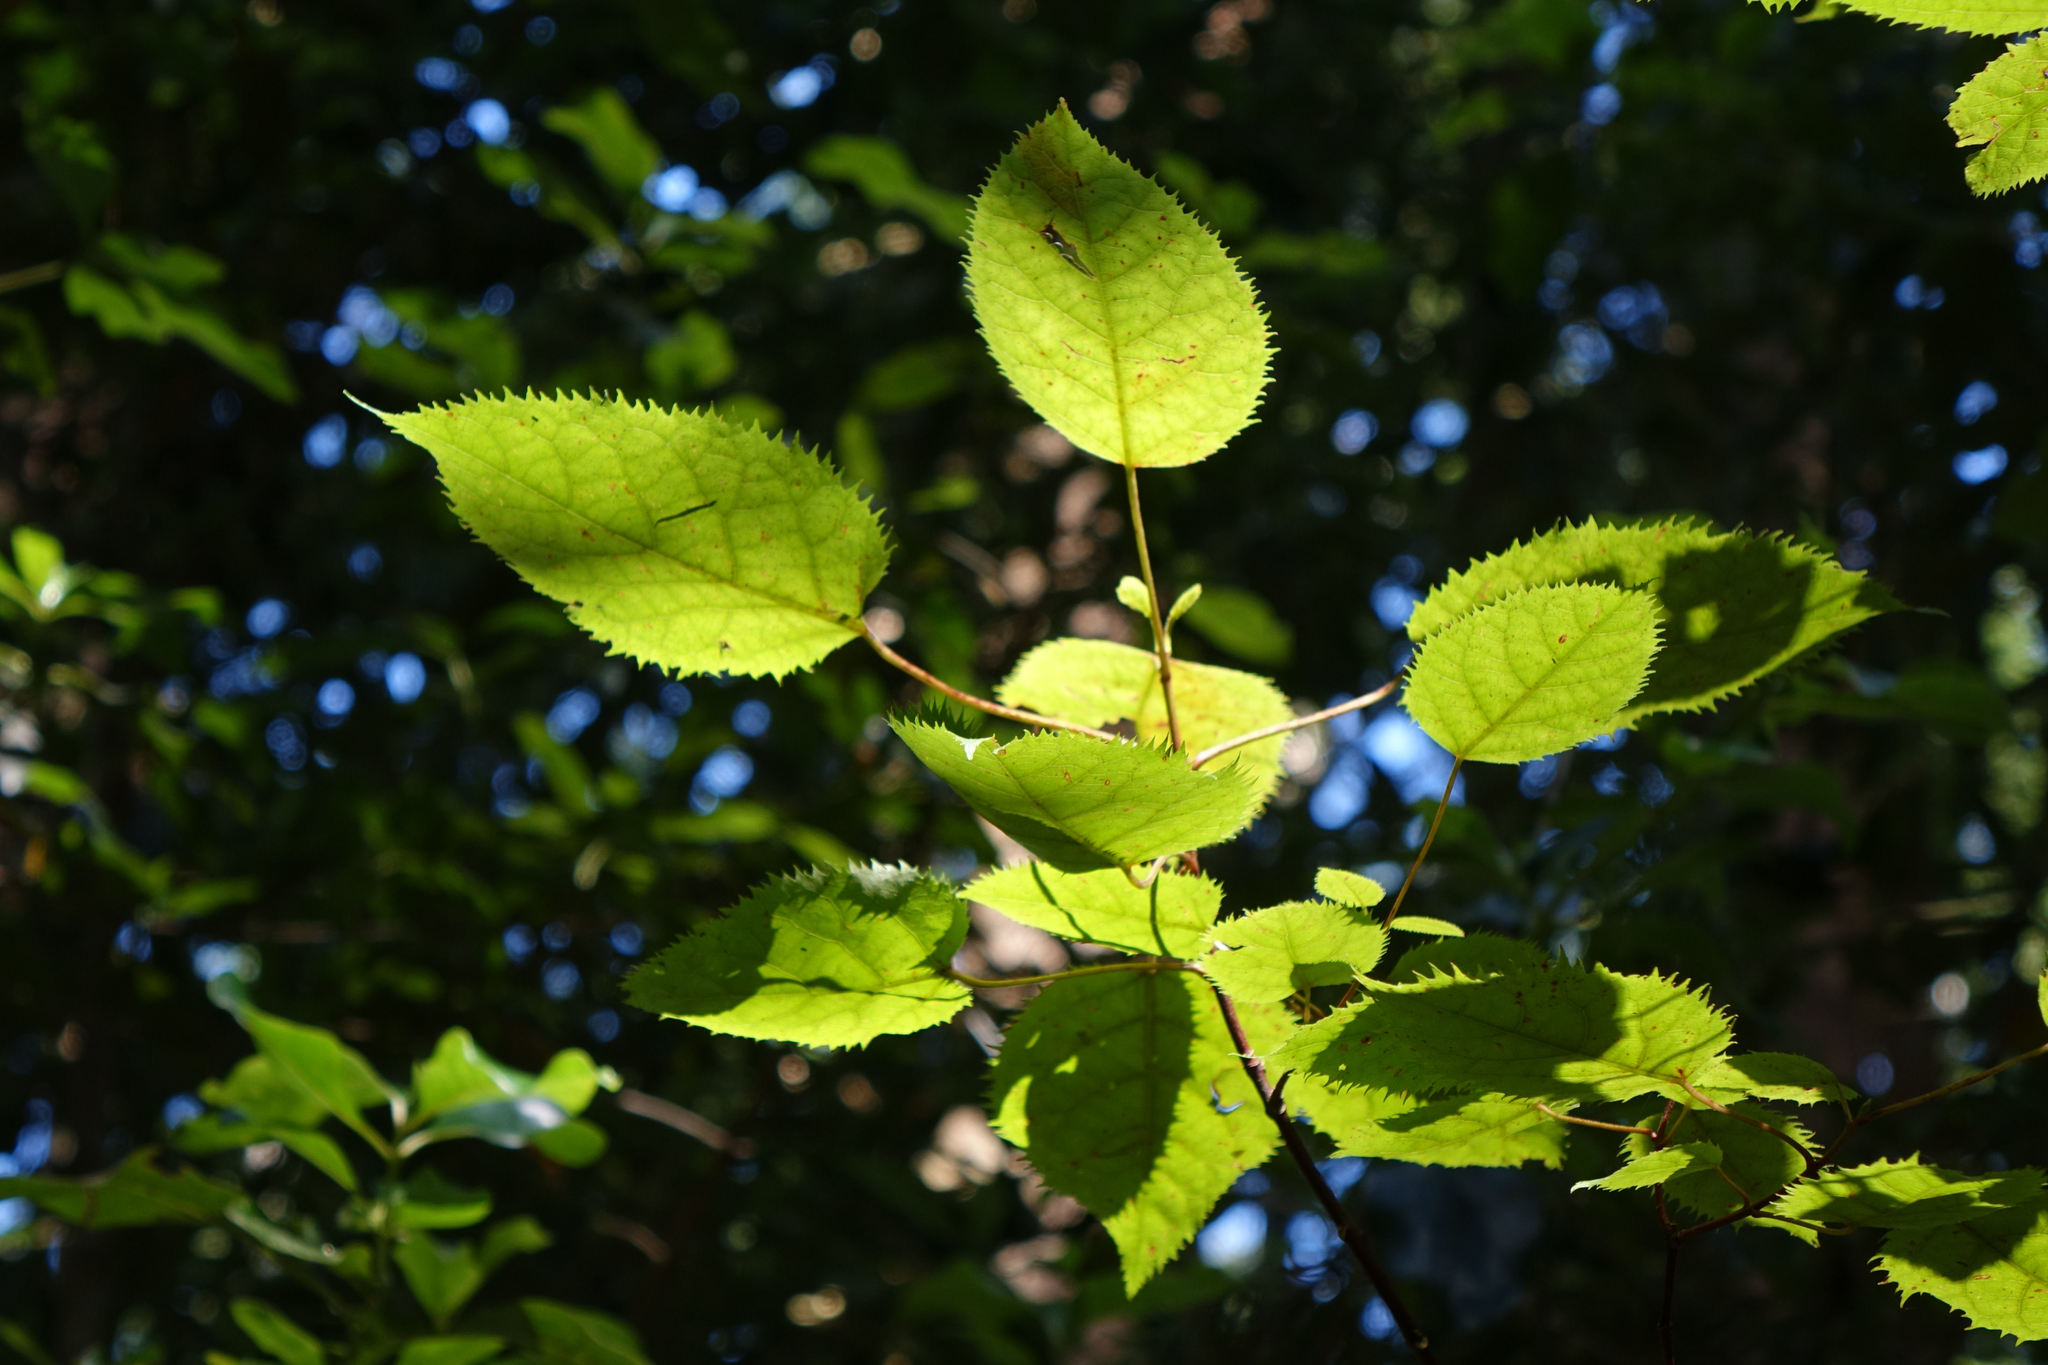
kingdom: Plantae
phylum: Tracheophyta
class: Magnoliopsida
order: Oxalidales
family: Elaeocarpaceae
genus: Aristotelia
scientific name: Aristotelia serrata
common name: New zealand wineberry
